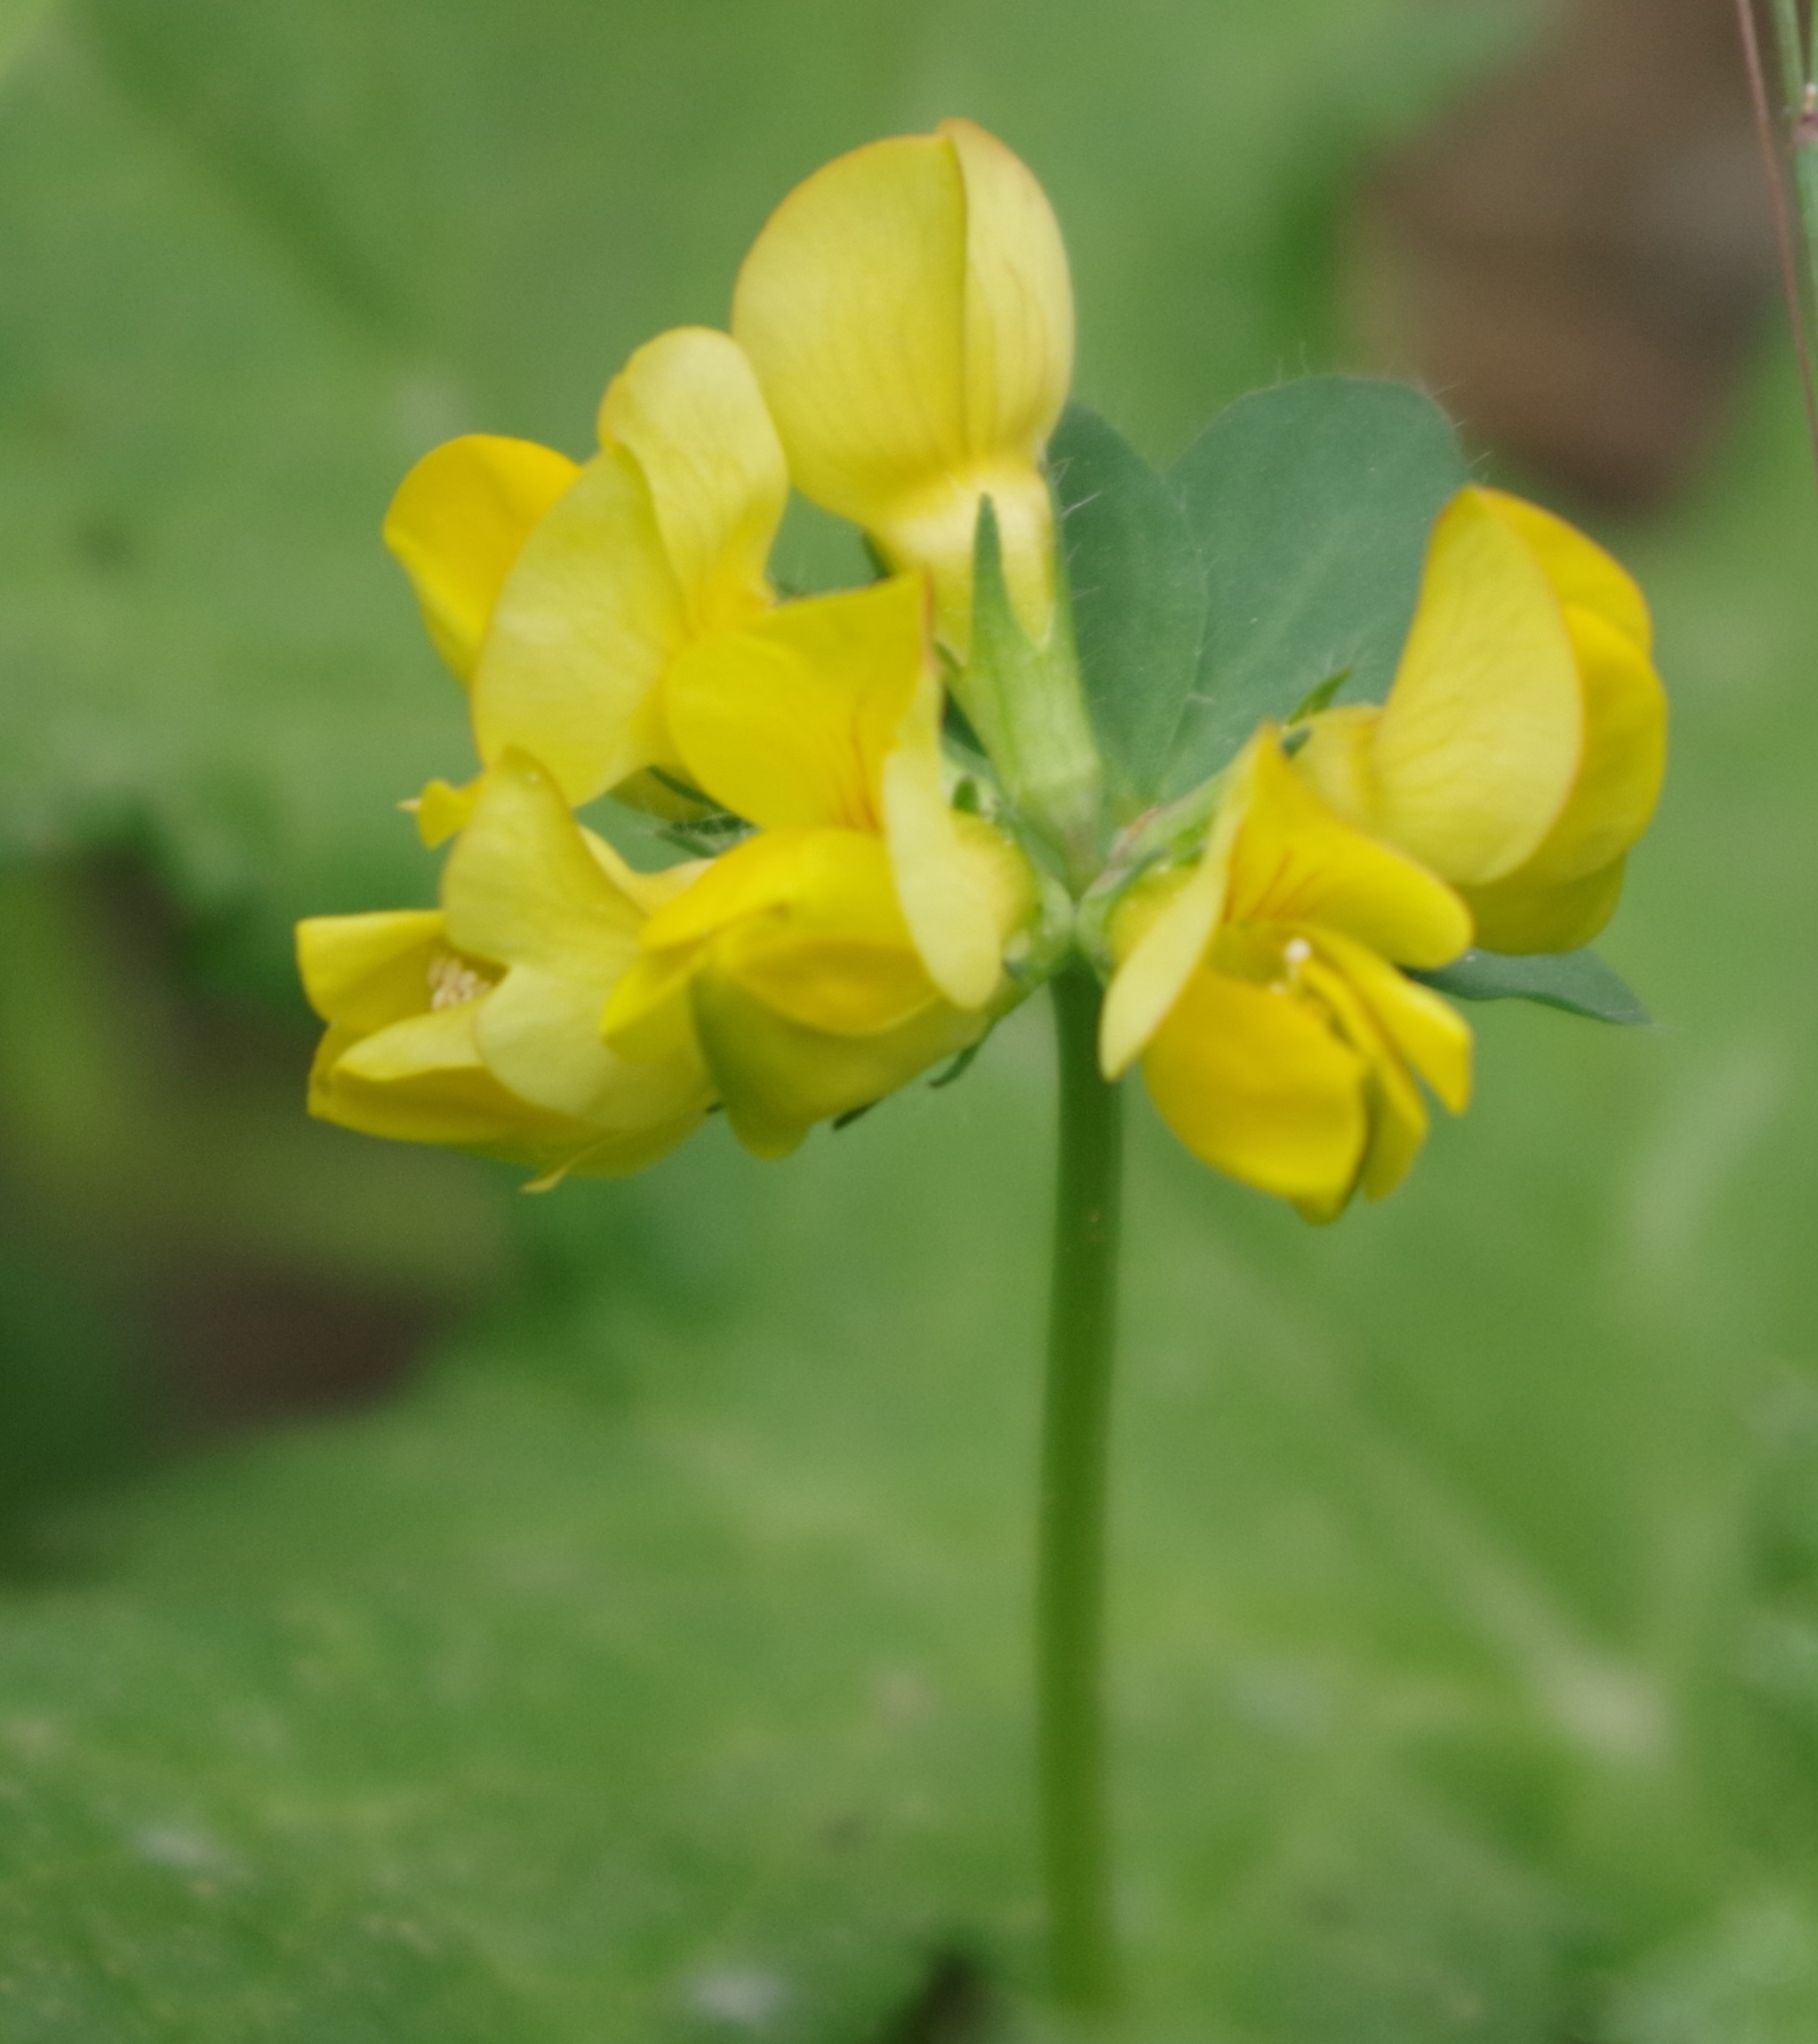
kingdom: Plantae
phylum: Tracheophyta
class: Magnoliopsida
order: Fabales
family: Fabaceae
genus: Lotus
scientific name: Lotus corniculatus
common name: Common bird's-foot-trefoil
